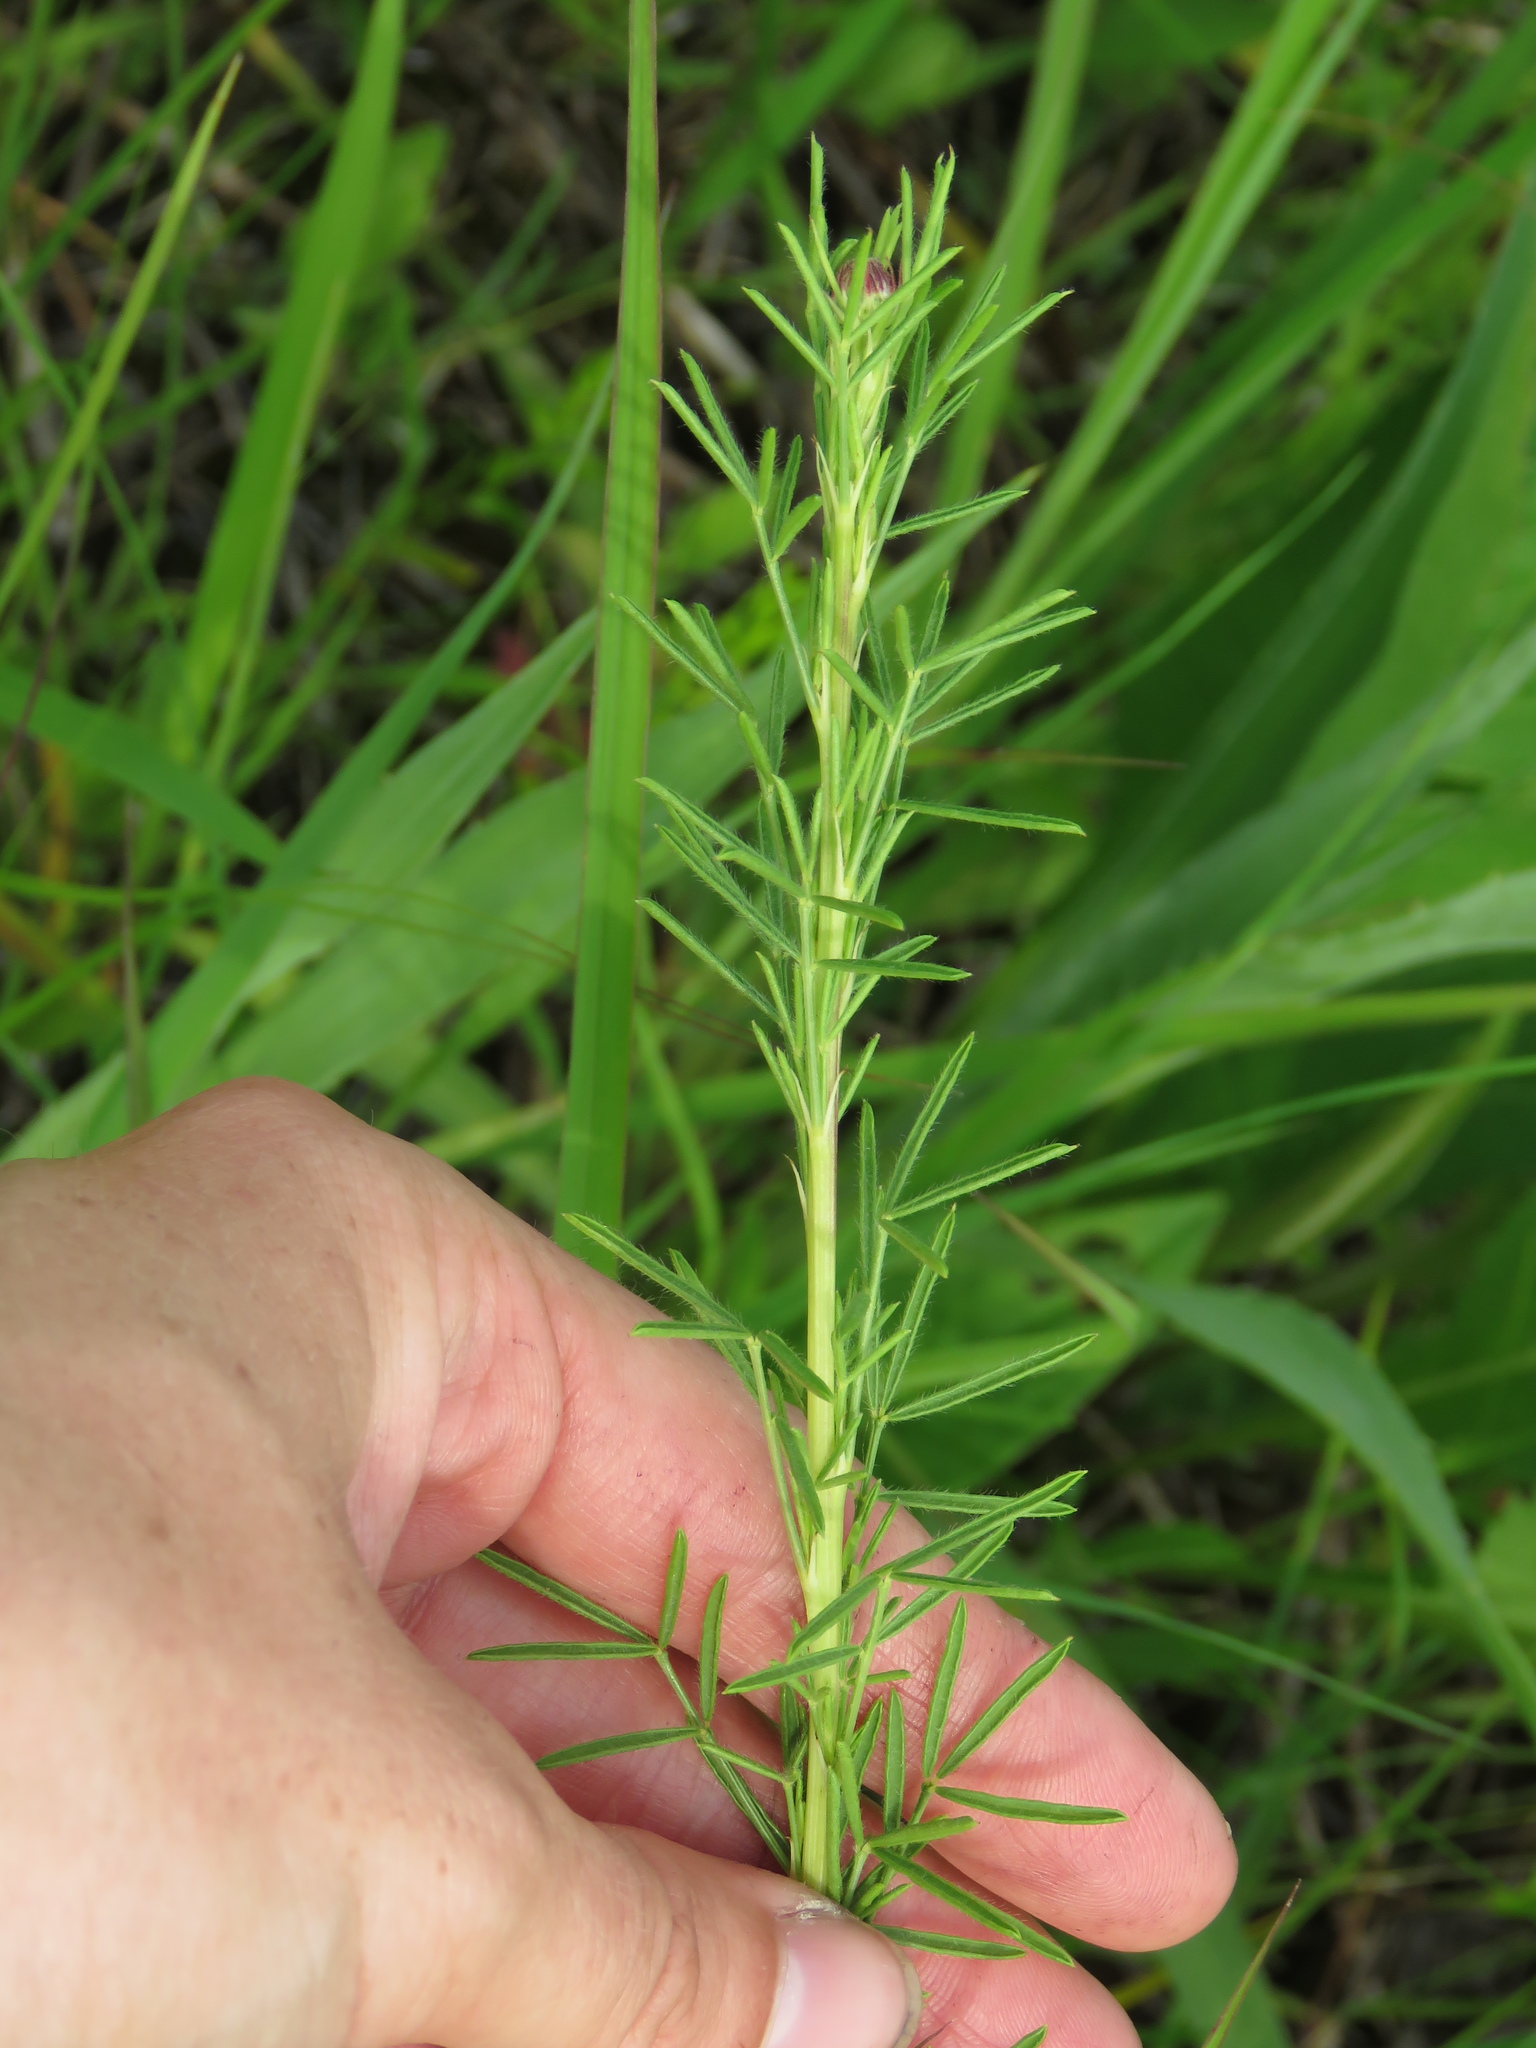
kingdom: Plantae
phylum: Tracheophyta
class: Magnoliopsida
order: Fabales
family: Fabaceae
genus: Dalea
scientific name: Dalea purpurea
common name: Purple prairie-clover
